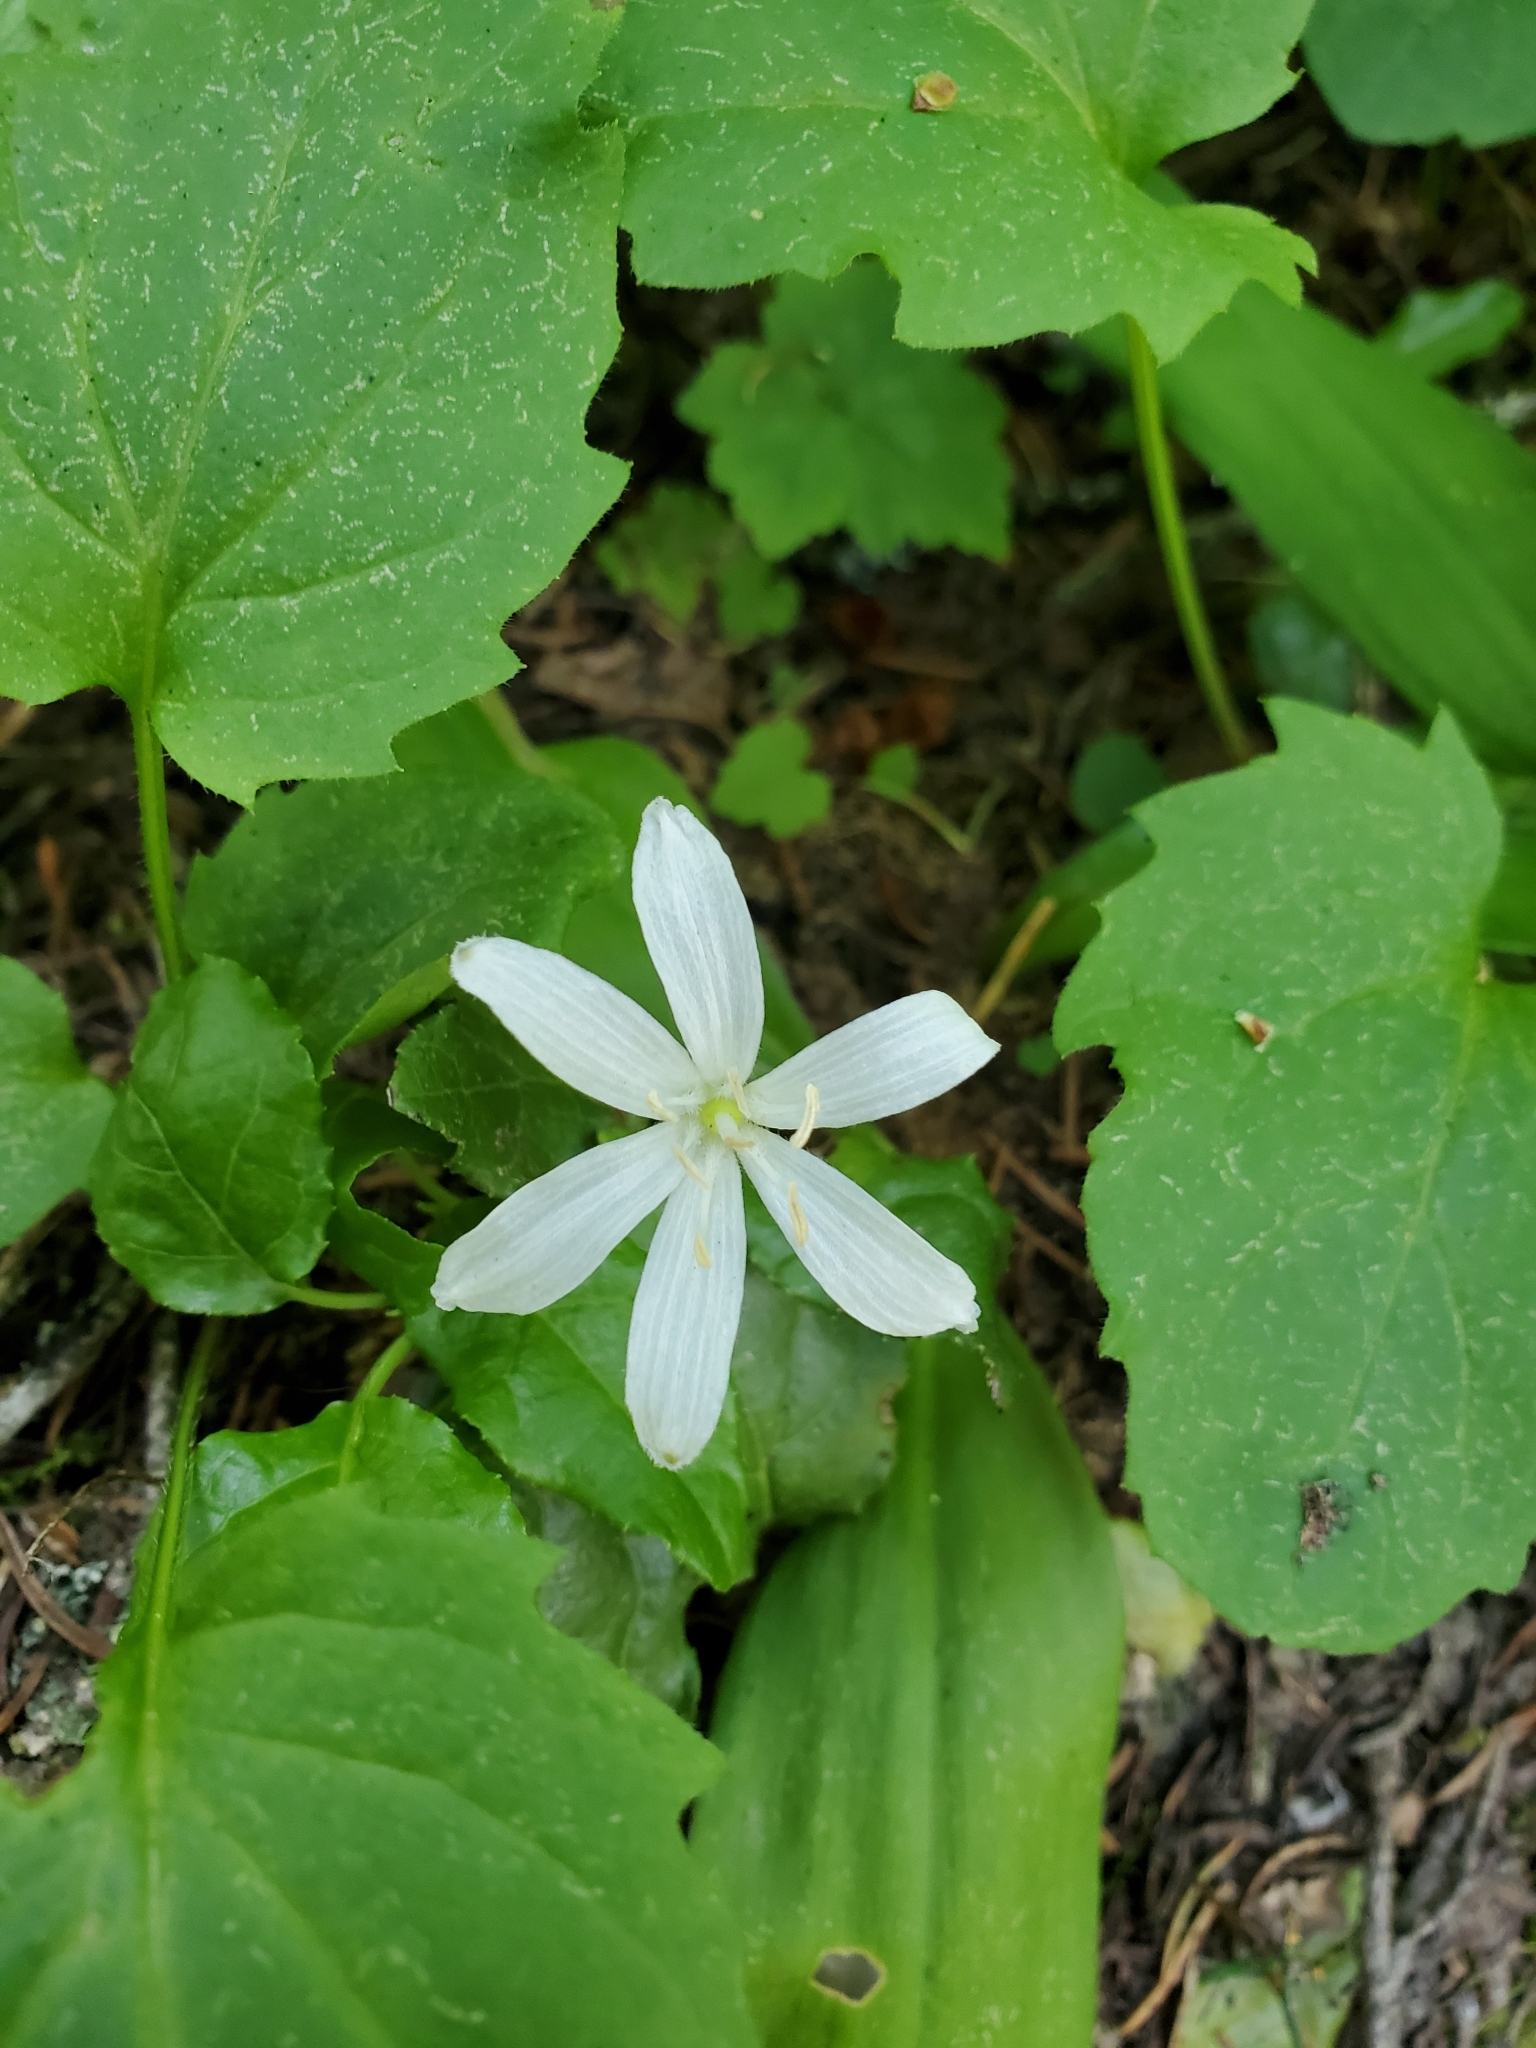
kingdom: Plantae
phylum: Tracheophyta
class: Liliopsida
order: Liliales
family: Liliaceae
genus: Clintonia
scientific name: Clintonia uniflora
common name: Queen's cup
